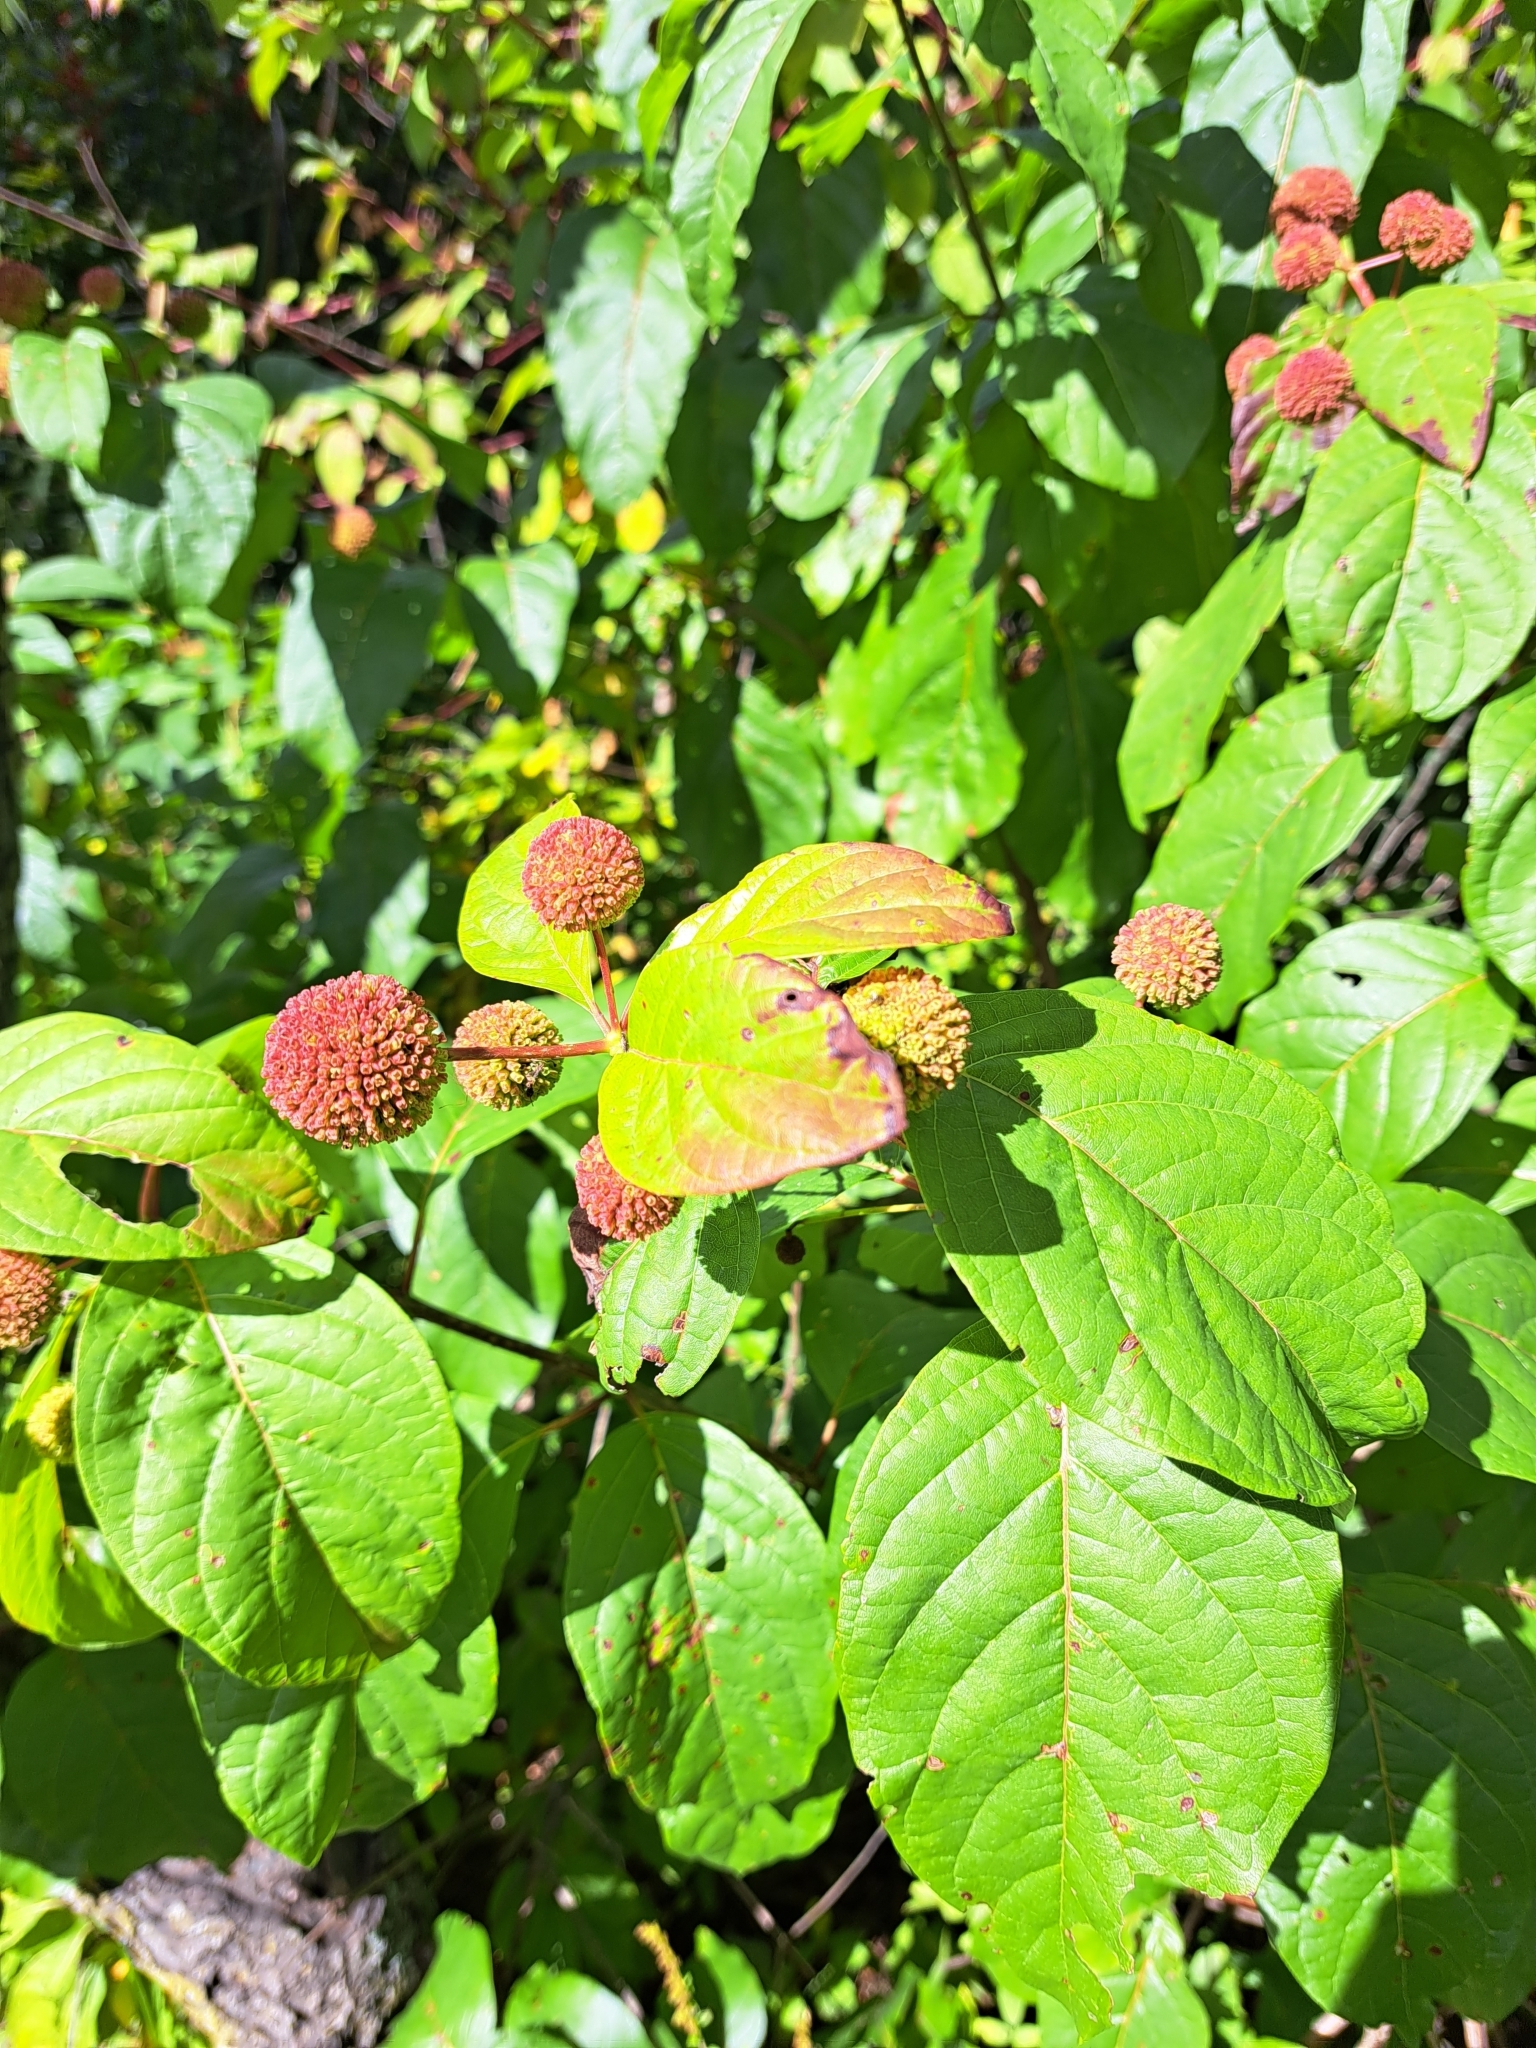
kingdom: Plantae
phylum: Tracheophyta
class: Magnoliopsida
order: Gentianales
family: Rubiaceae
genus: Cephalanthus
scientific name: Cephalanthus occidentalis
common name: Button-willow
